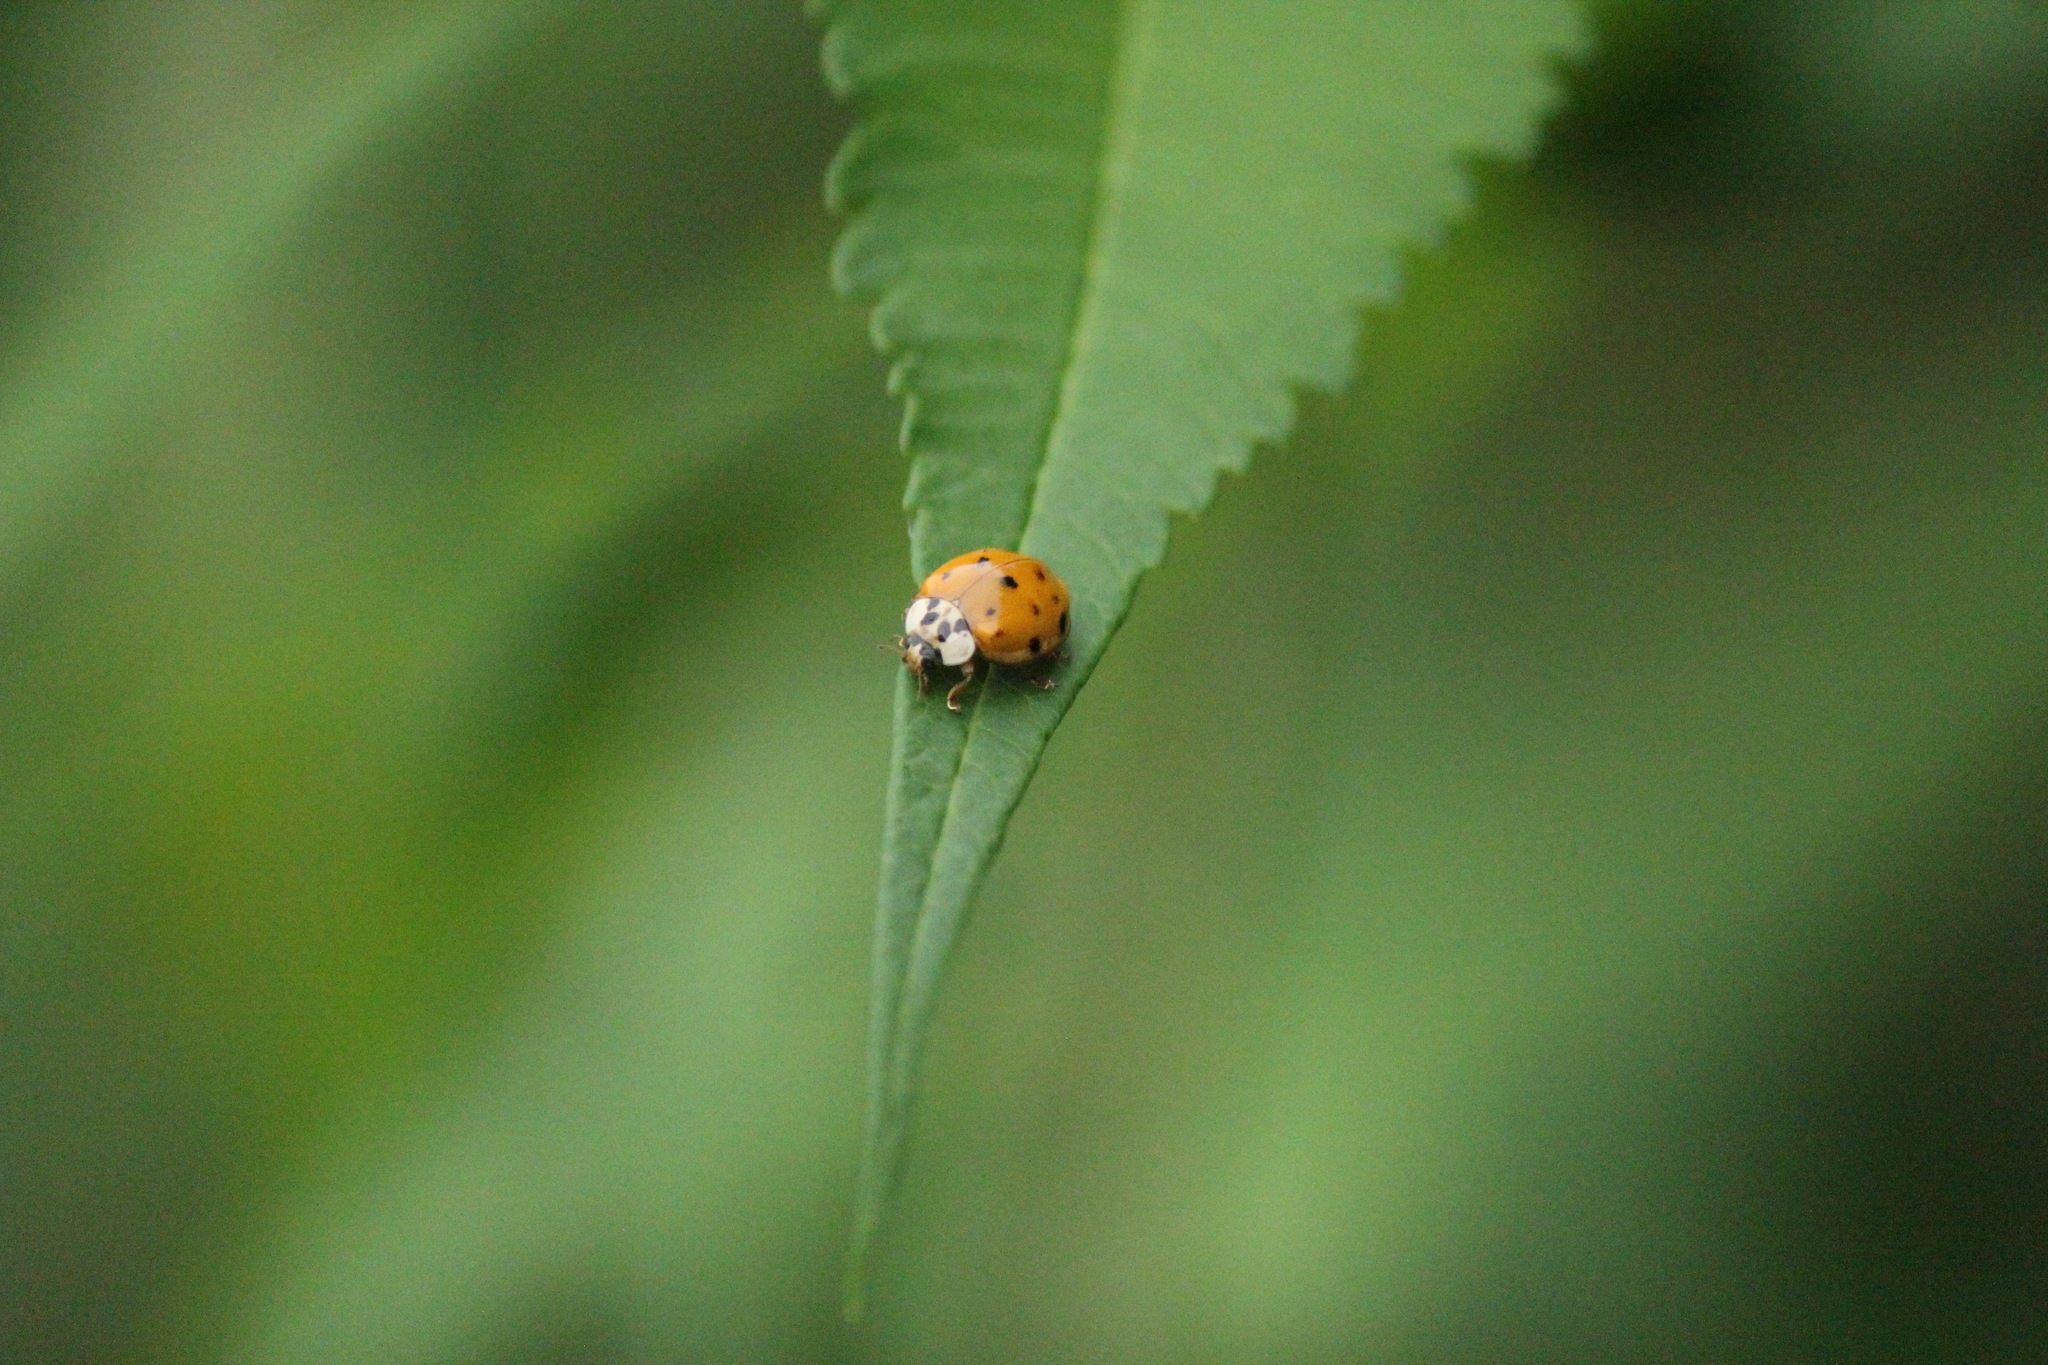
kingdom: Animalia
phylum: Arthropoda
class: Insecta
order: Coleoptera
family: Coccinellidae
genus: Harmonia
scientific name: Harmonia axyridis
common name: Harlequin ladybird
